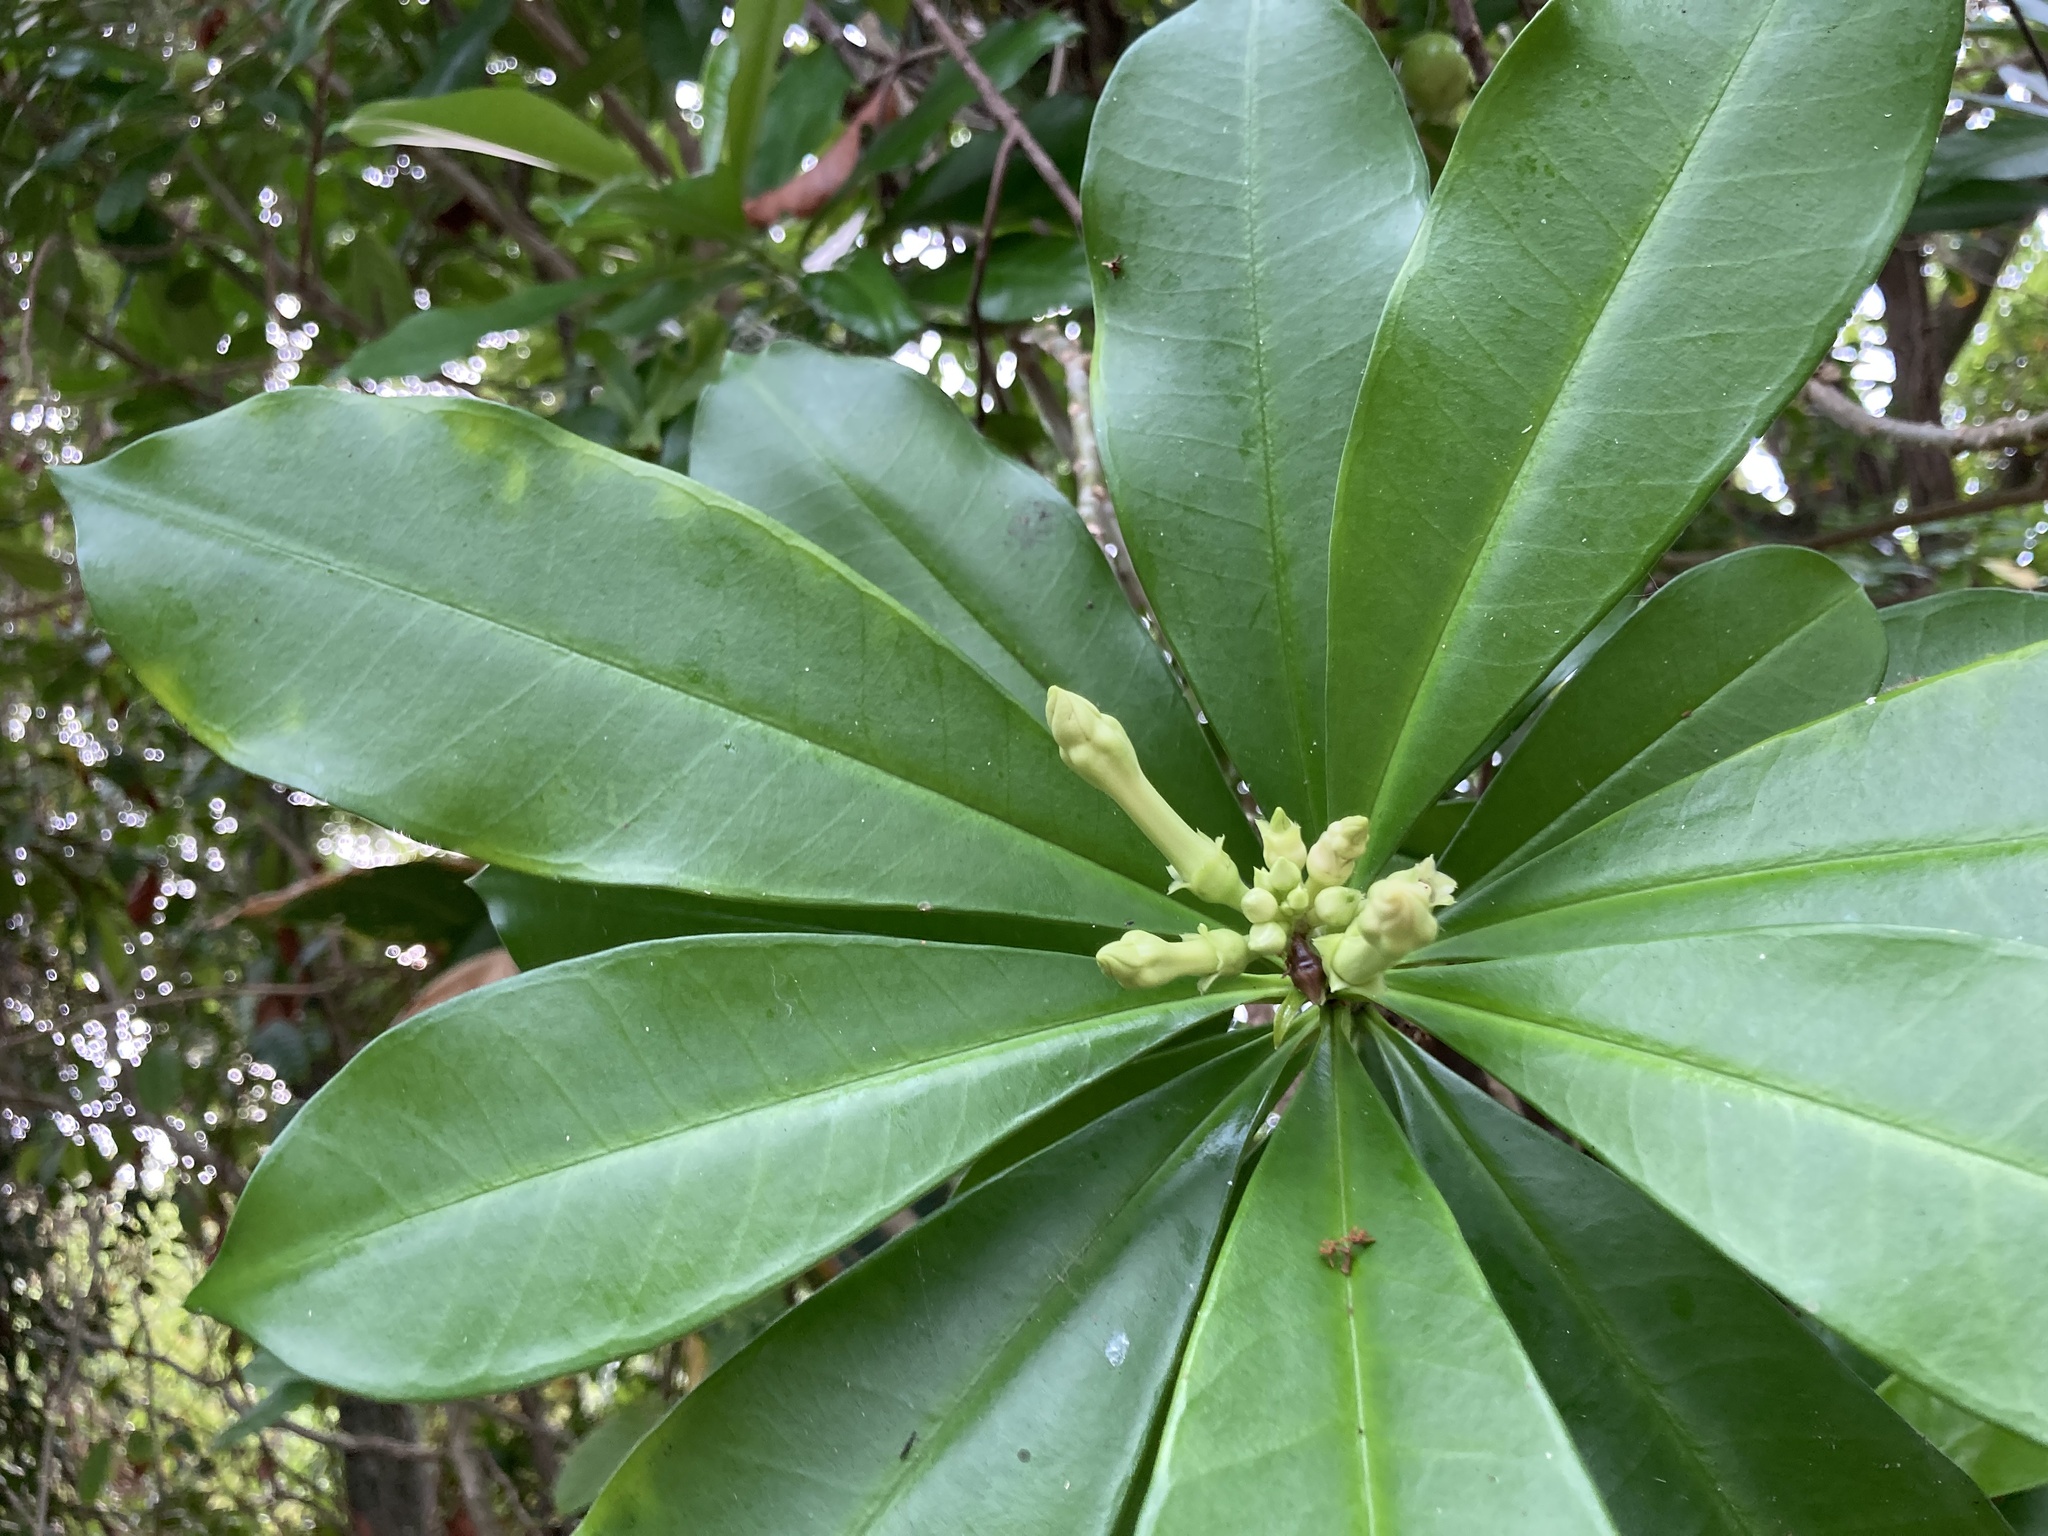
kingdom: Plantae
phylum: Tracheophyta
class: Magnoliopsida
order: Gentianales
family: Apocynaceae
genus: Thevetia
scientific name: Thevetia ahouai
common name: Broadleaf thevetia
